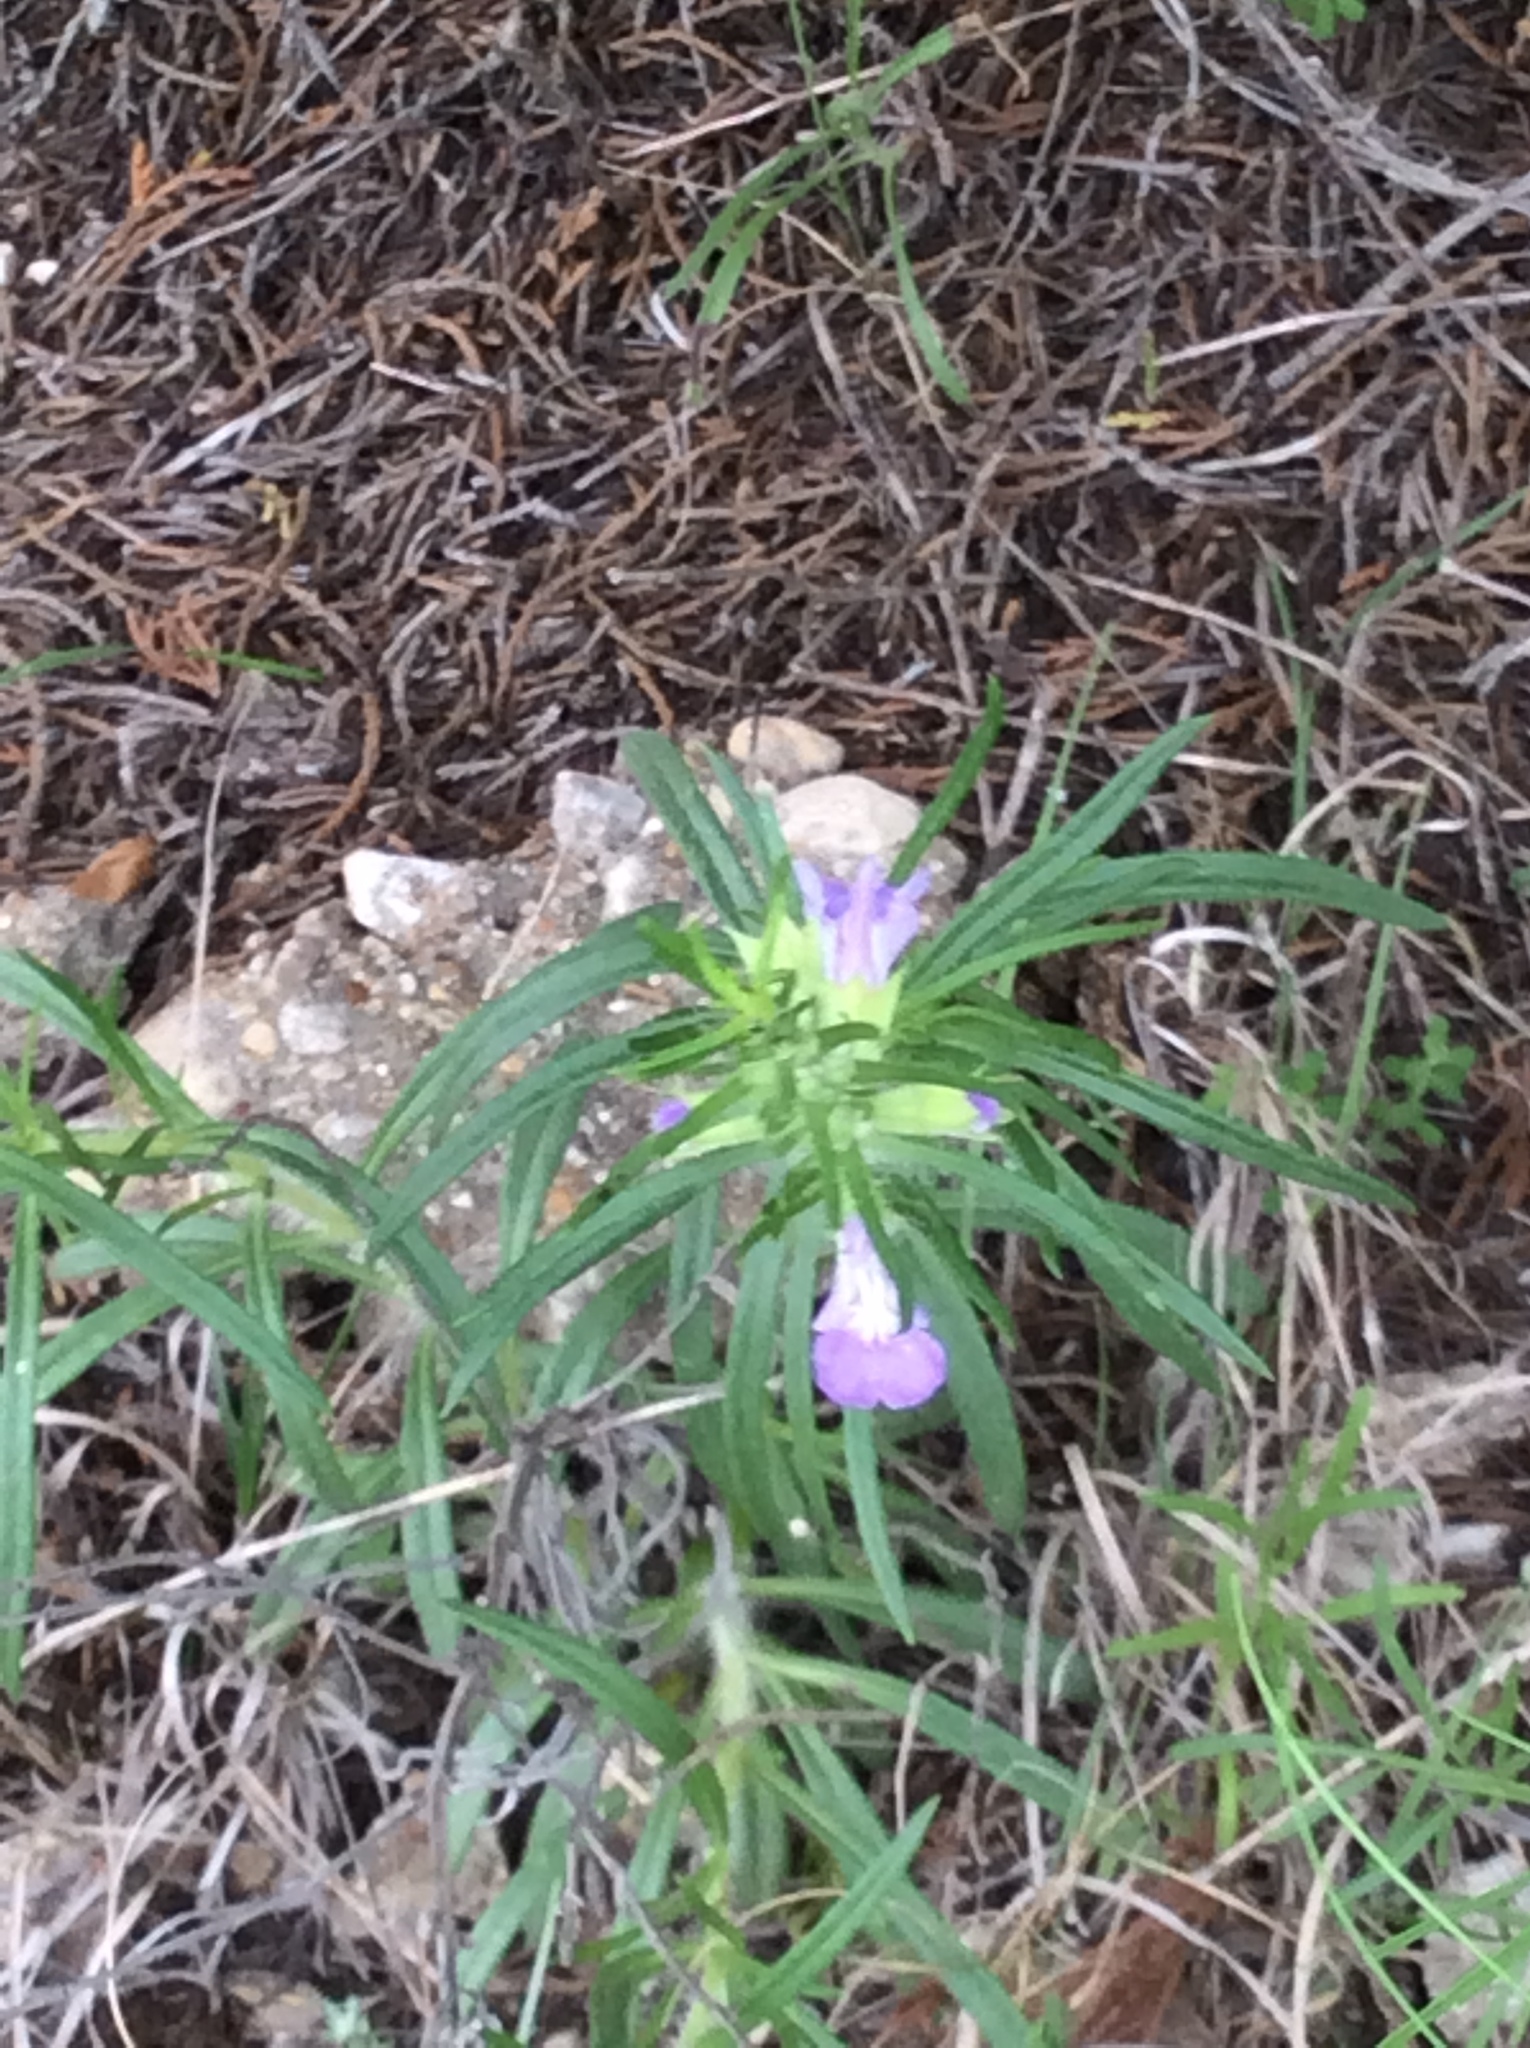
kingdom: Plantae
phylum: Tracheophyta
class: Magnoliopsida
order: Lamiales
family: Lamiaceae
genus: Salvia
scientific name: Salvia texana
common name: Texas sage
